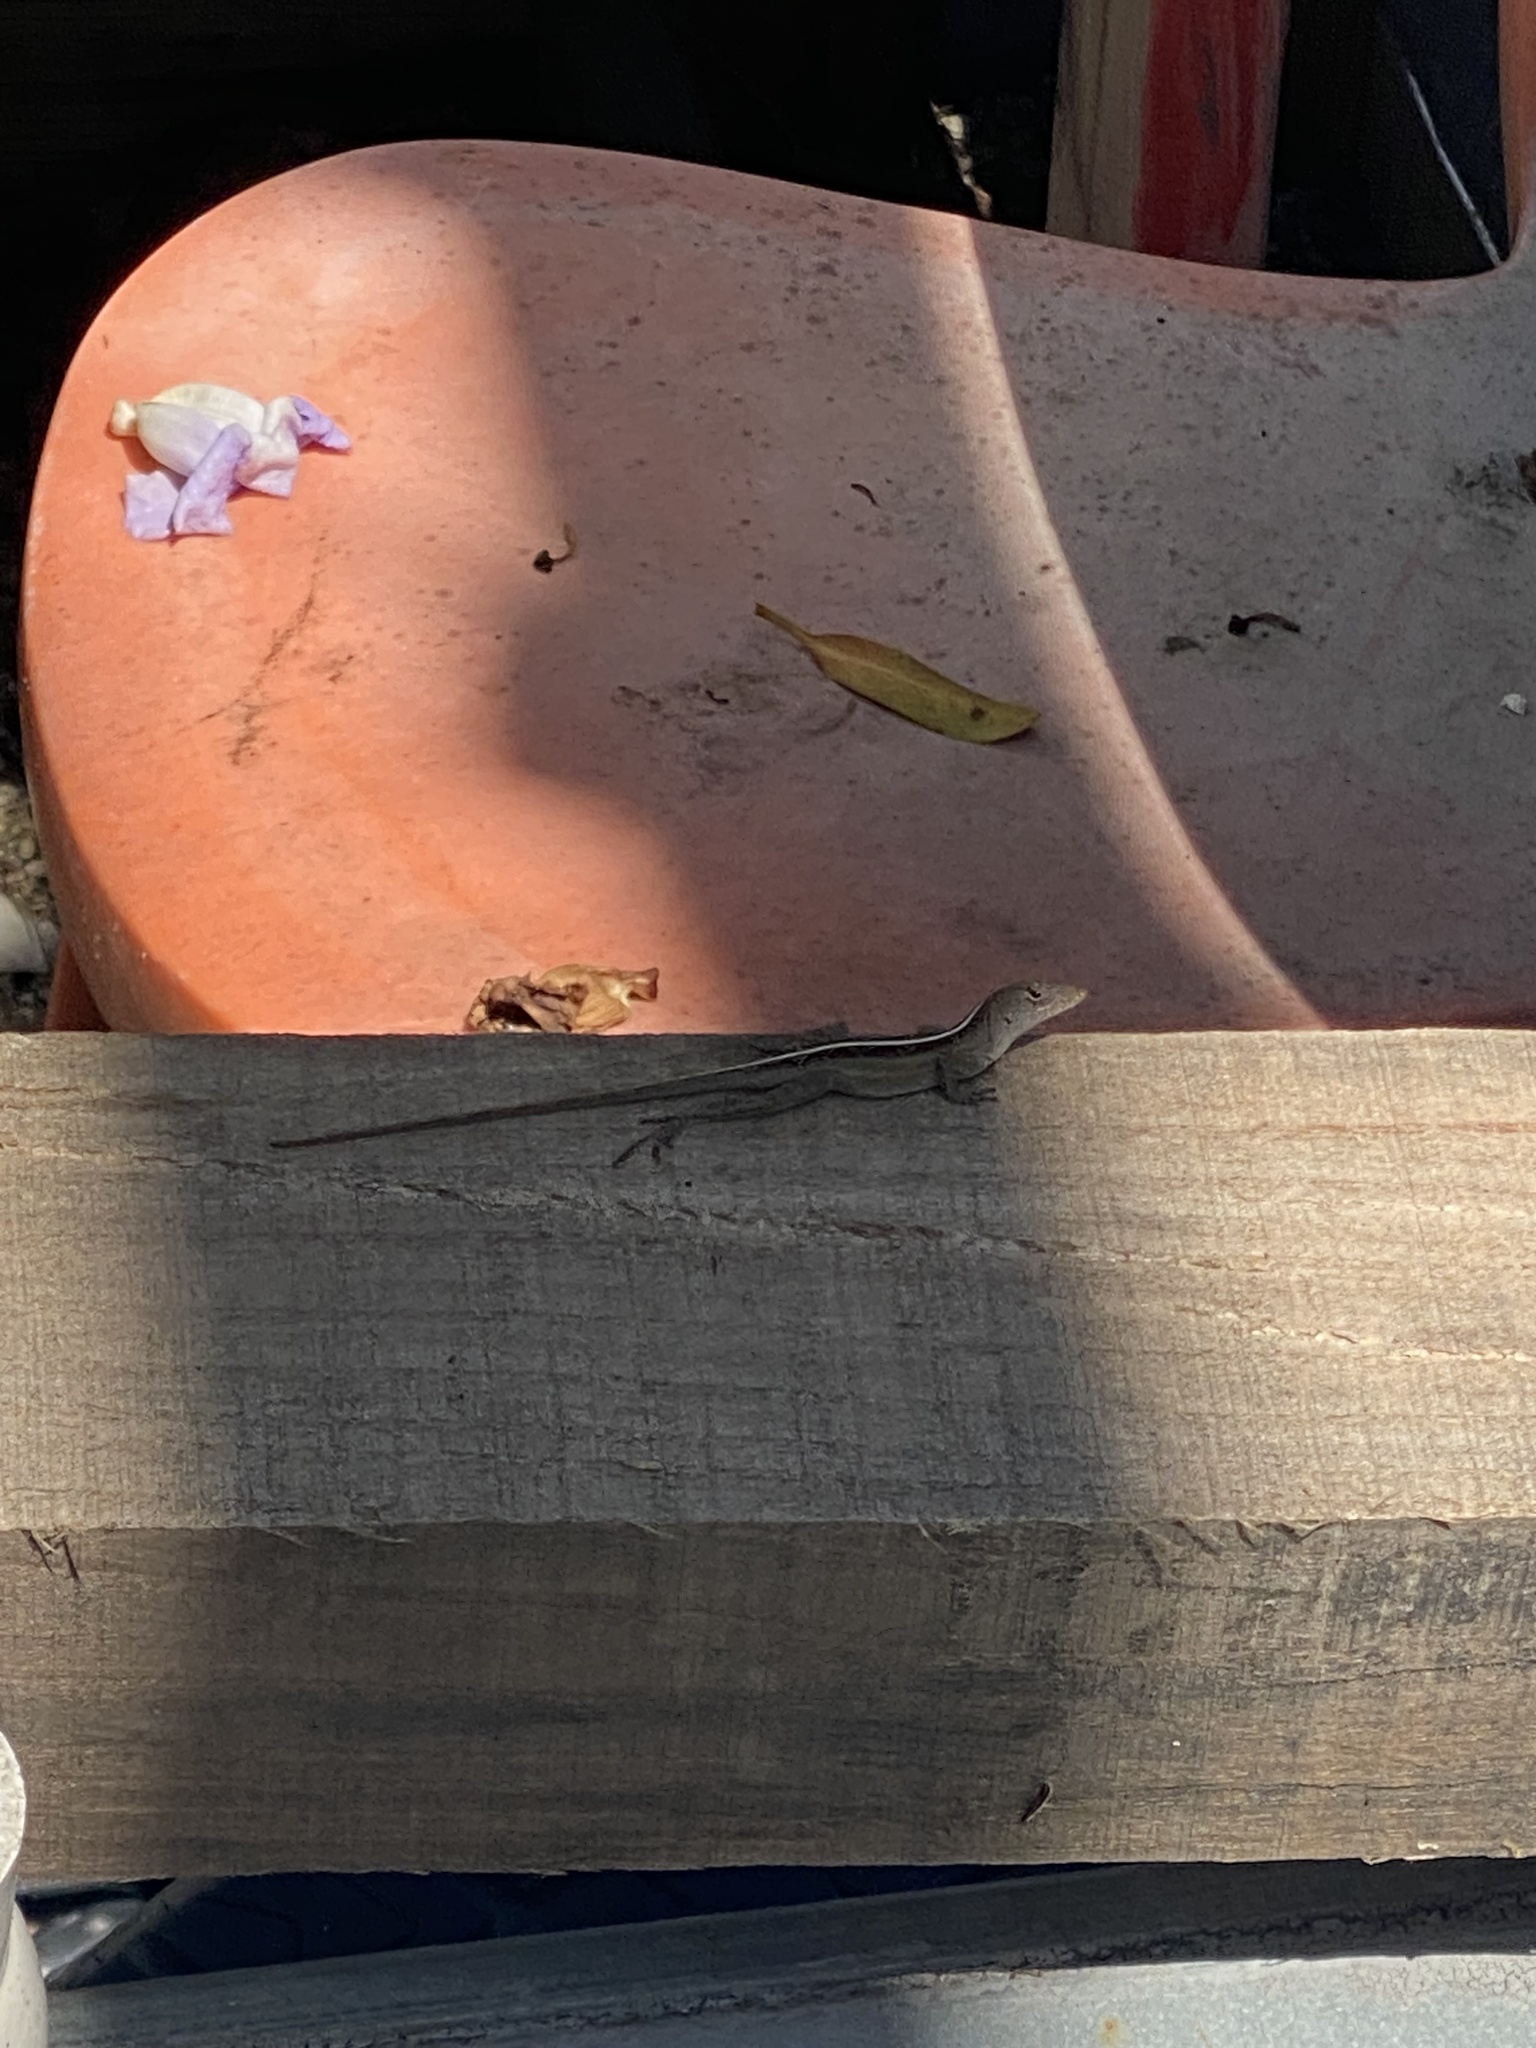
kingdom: Animalia
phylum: Chordata
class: Squamata
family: Dactyloidae
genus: Anolis
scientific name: Anolis sagrei
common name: Brown anole
